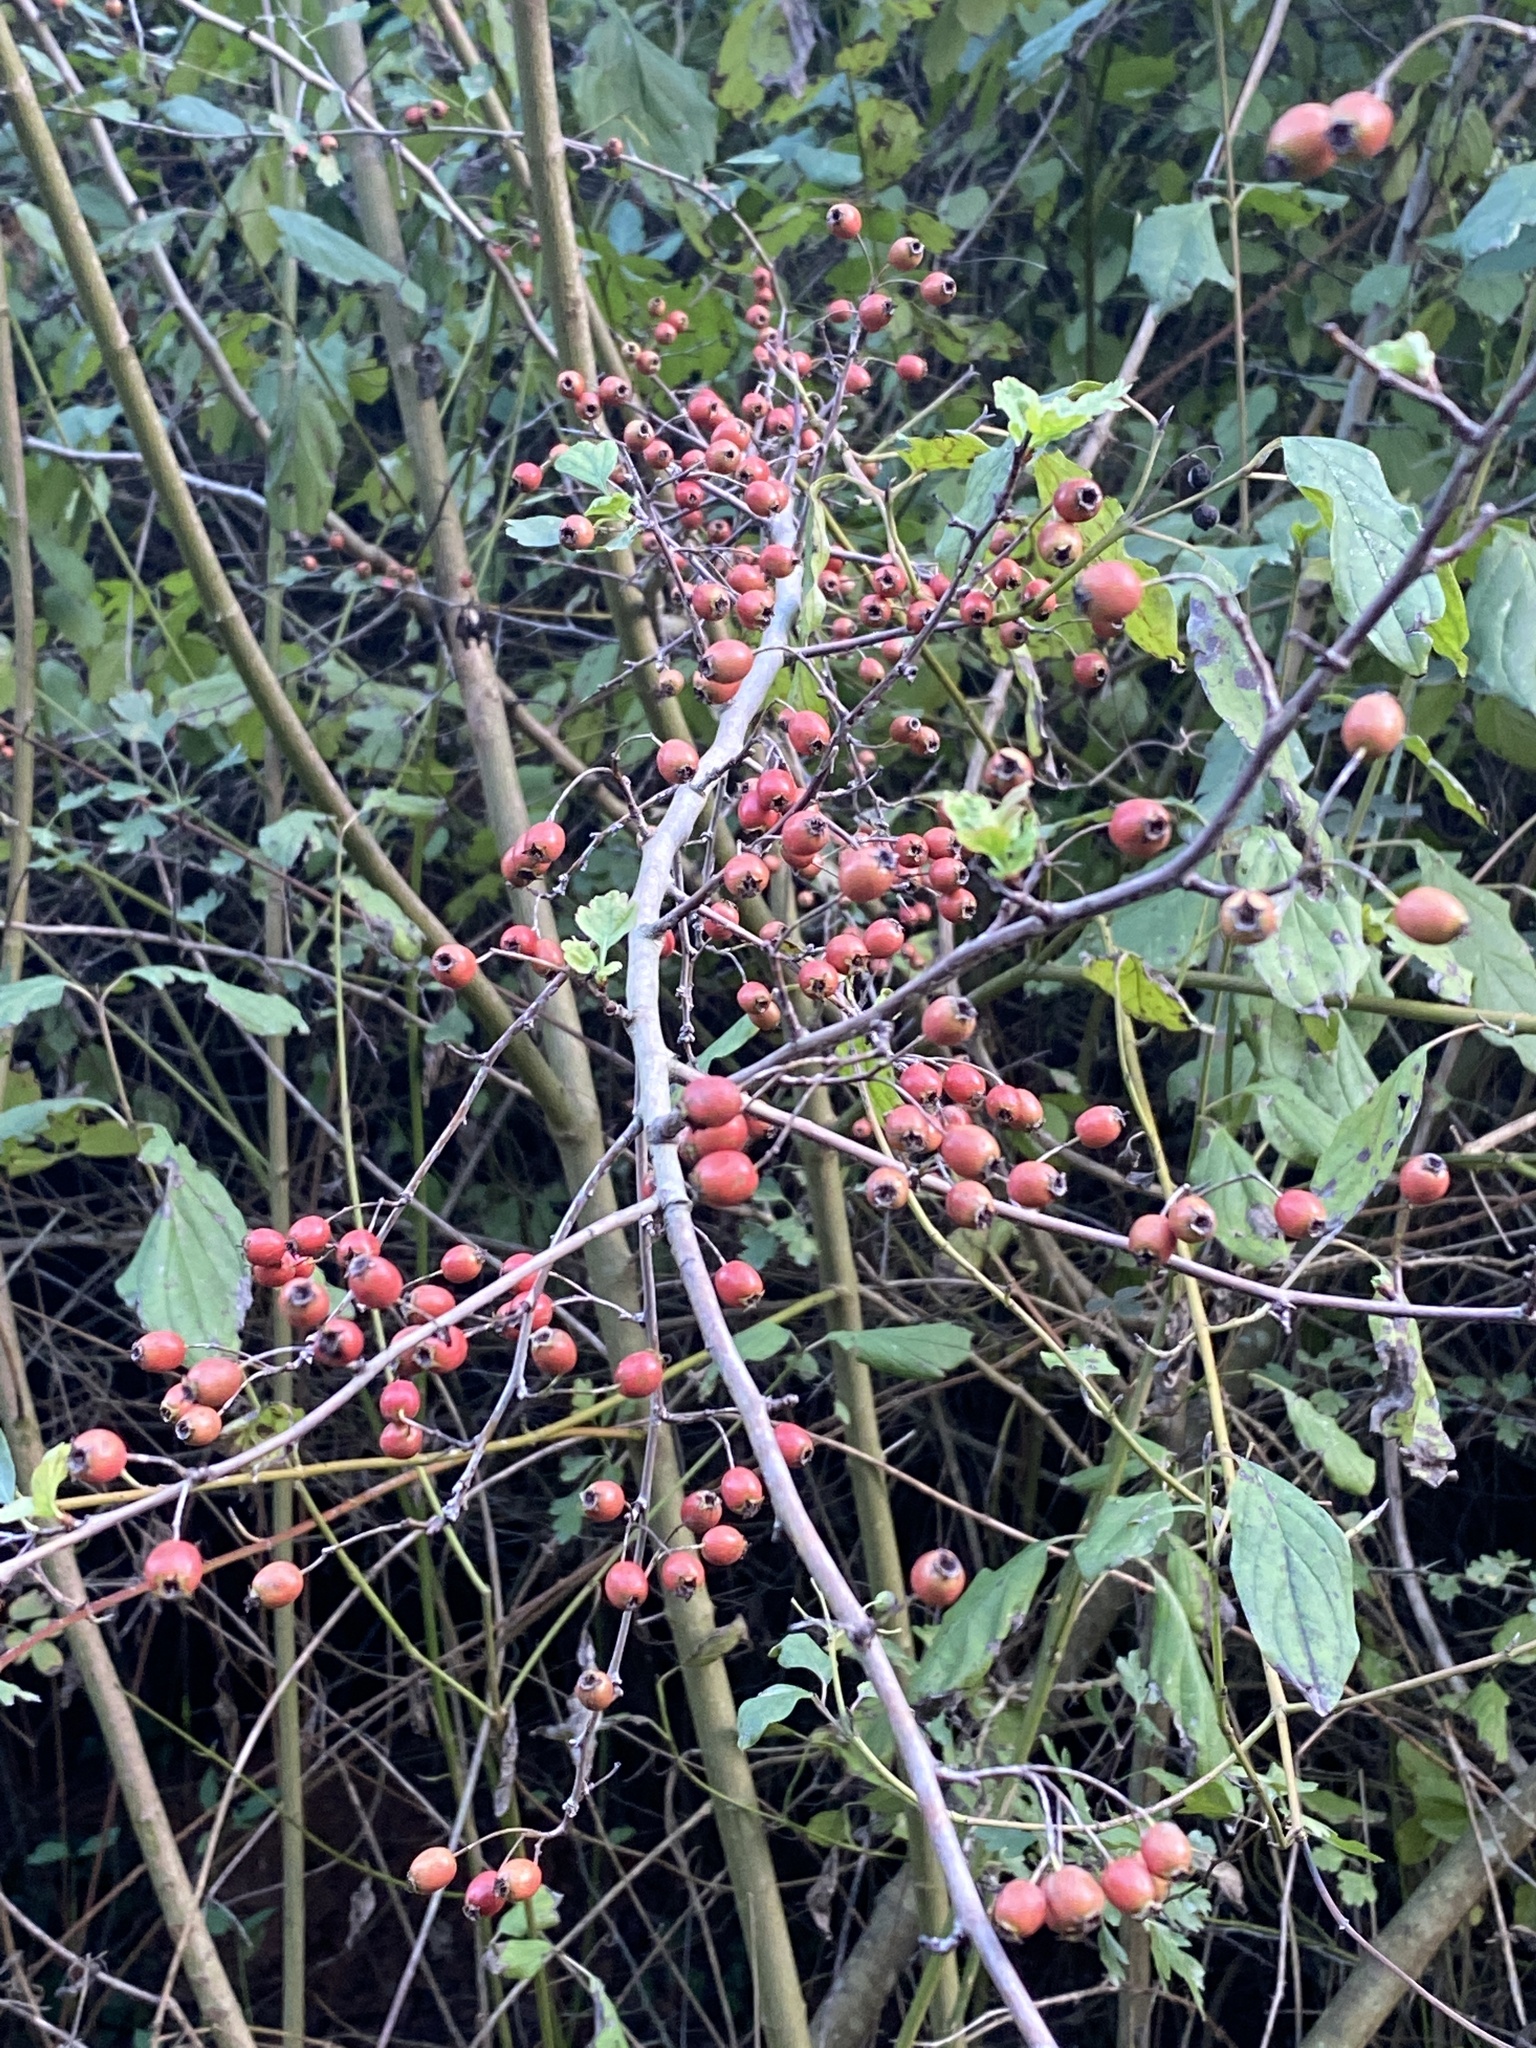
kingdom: Plantae
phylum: Tracheophyta
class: Magnoliopsida
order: Rosales
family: Rosaceae
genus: Crataegus
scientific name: Crataegus monogyna
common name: Hawthorn
